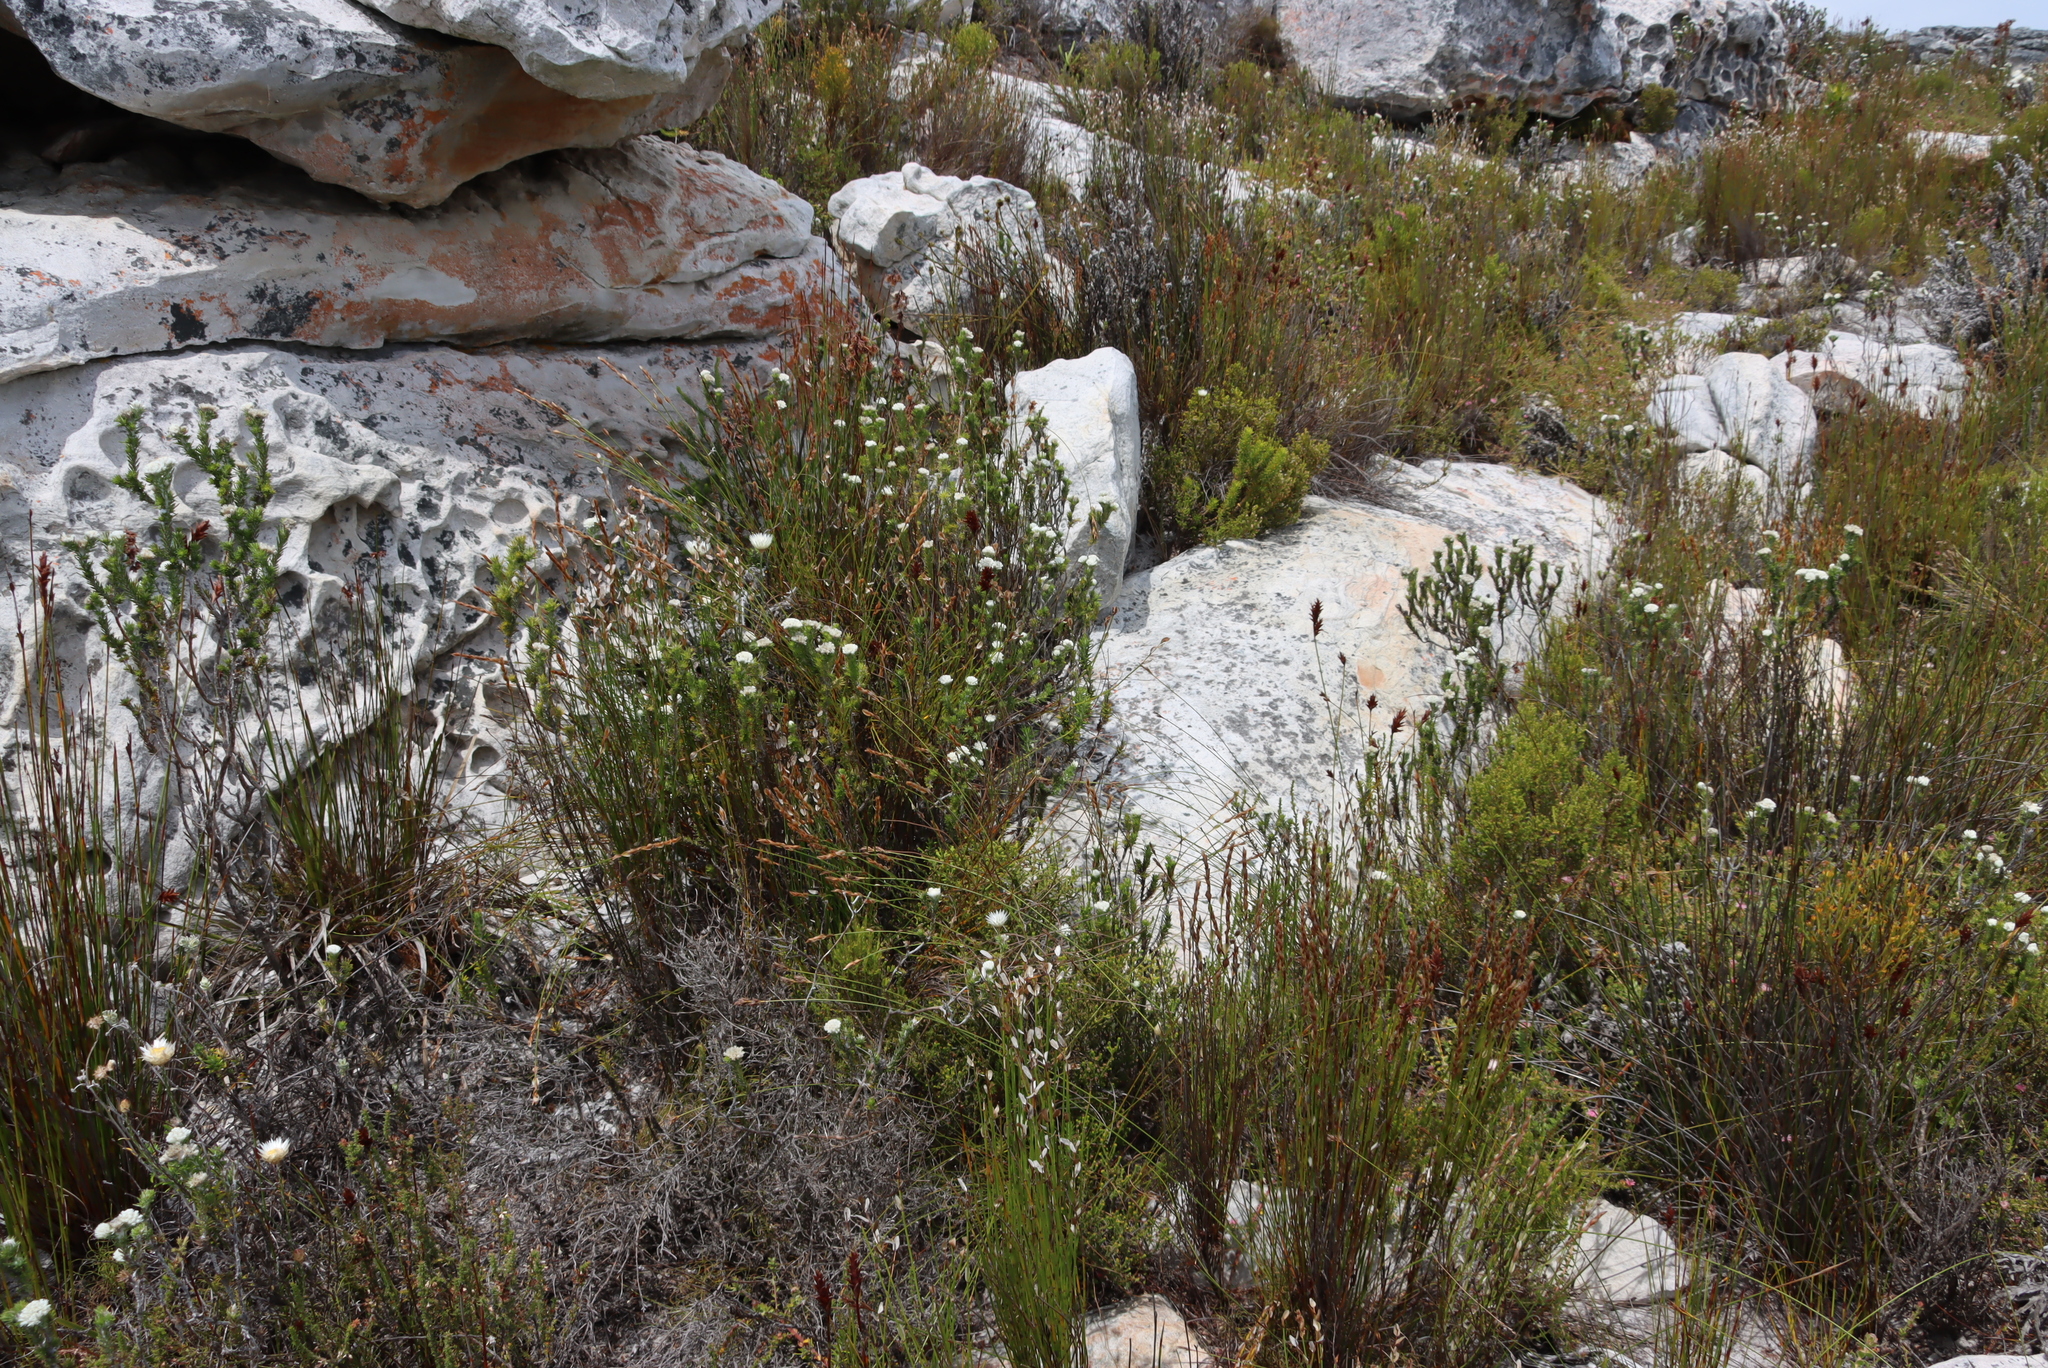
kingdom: Plantae
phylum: Tracheophyta
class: Magnoliopsida
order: Asterales
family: Asteraceae
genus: Metalasia
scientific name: Metalasia compacta
